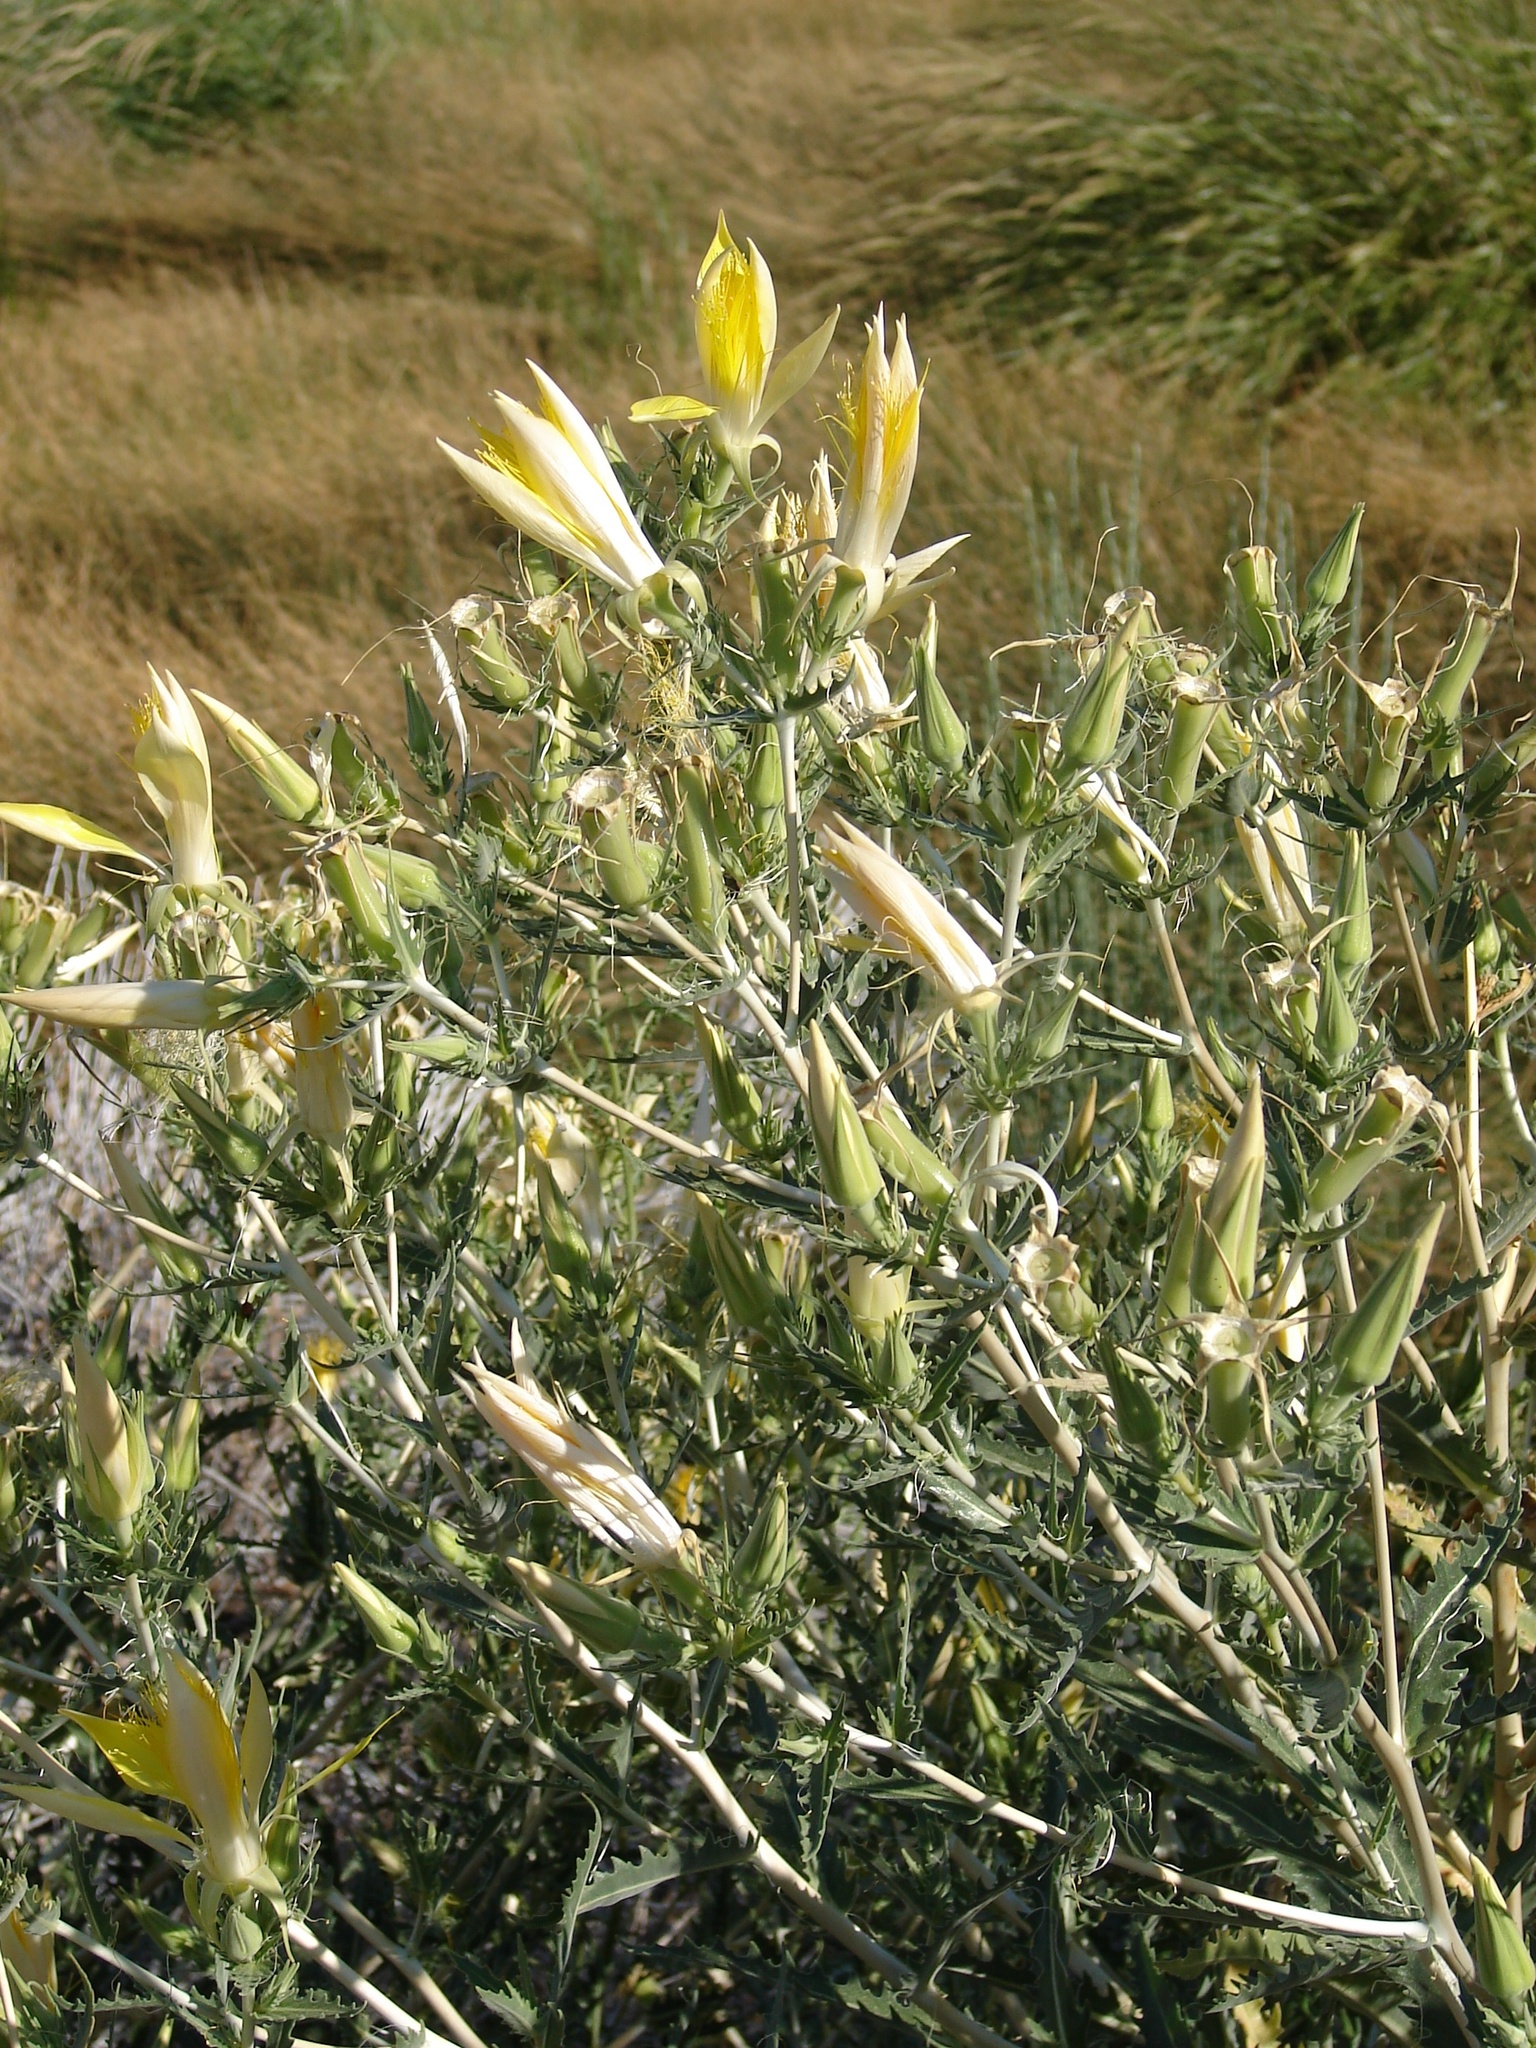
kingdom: Plantae
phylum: Tracheophyta
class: Magnoliopsida
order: Cornales
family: Loasaceae
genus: Mentzelia
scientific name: Mentzelia laevicaulis
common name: Smooth-stem blazingstar
